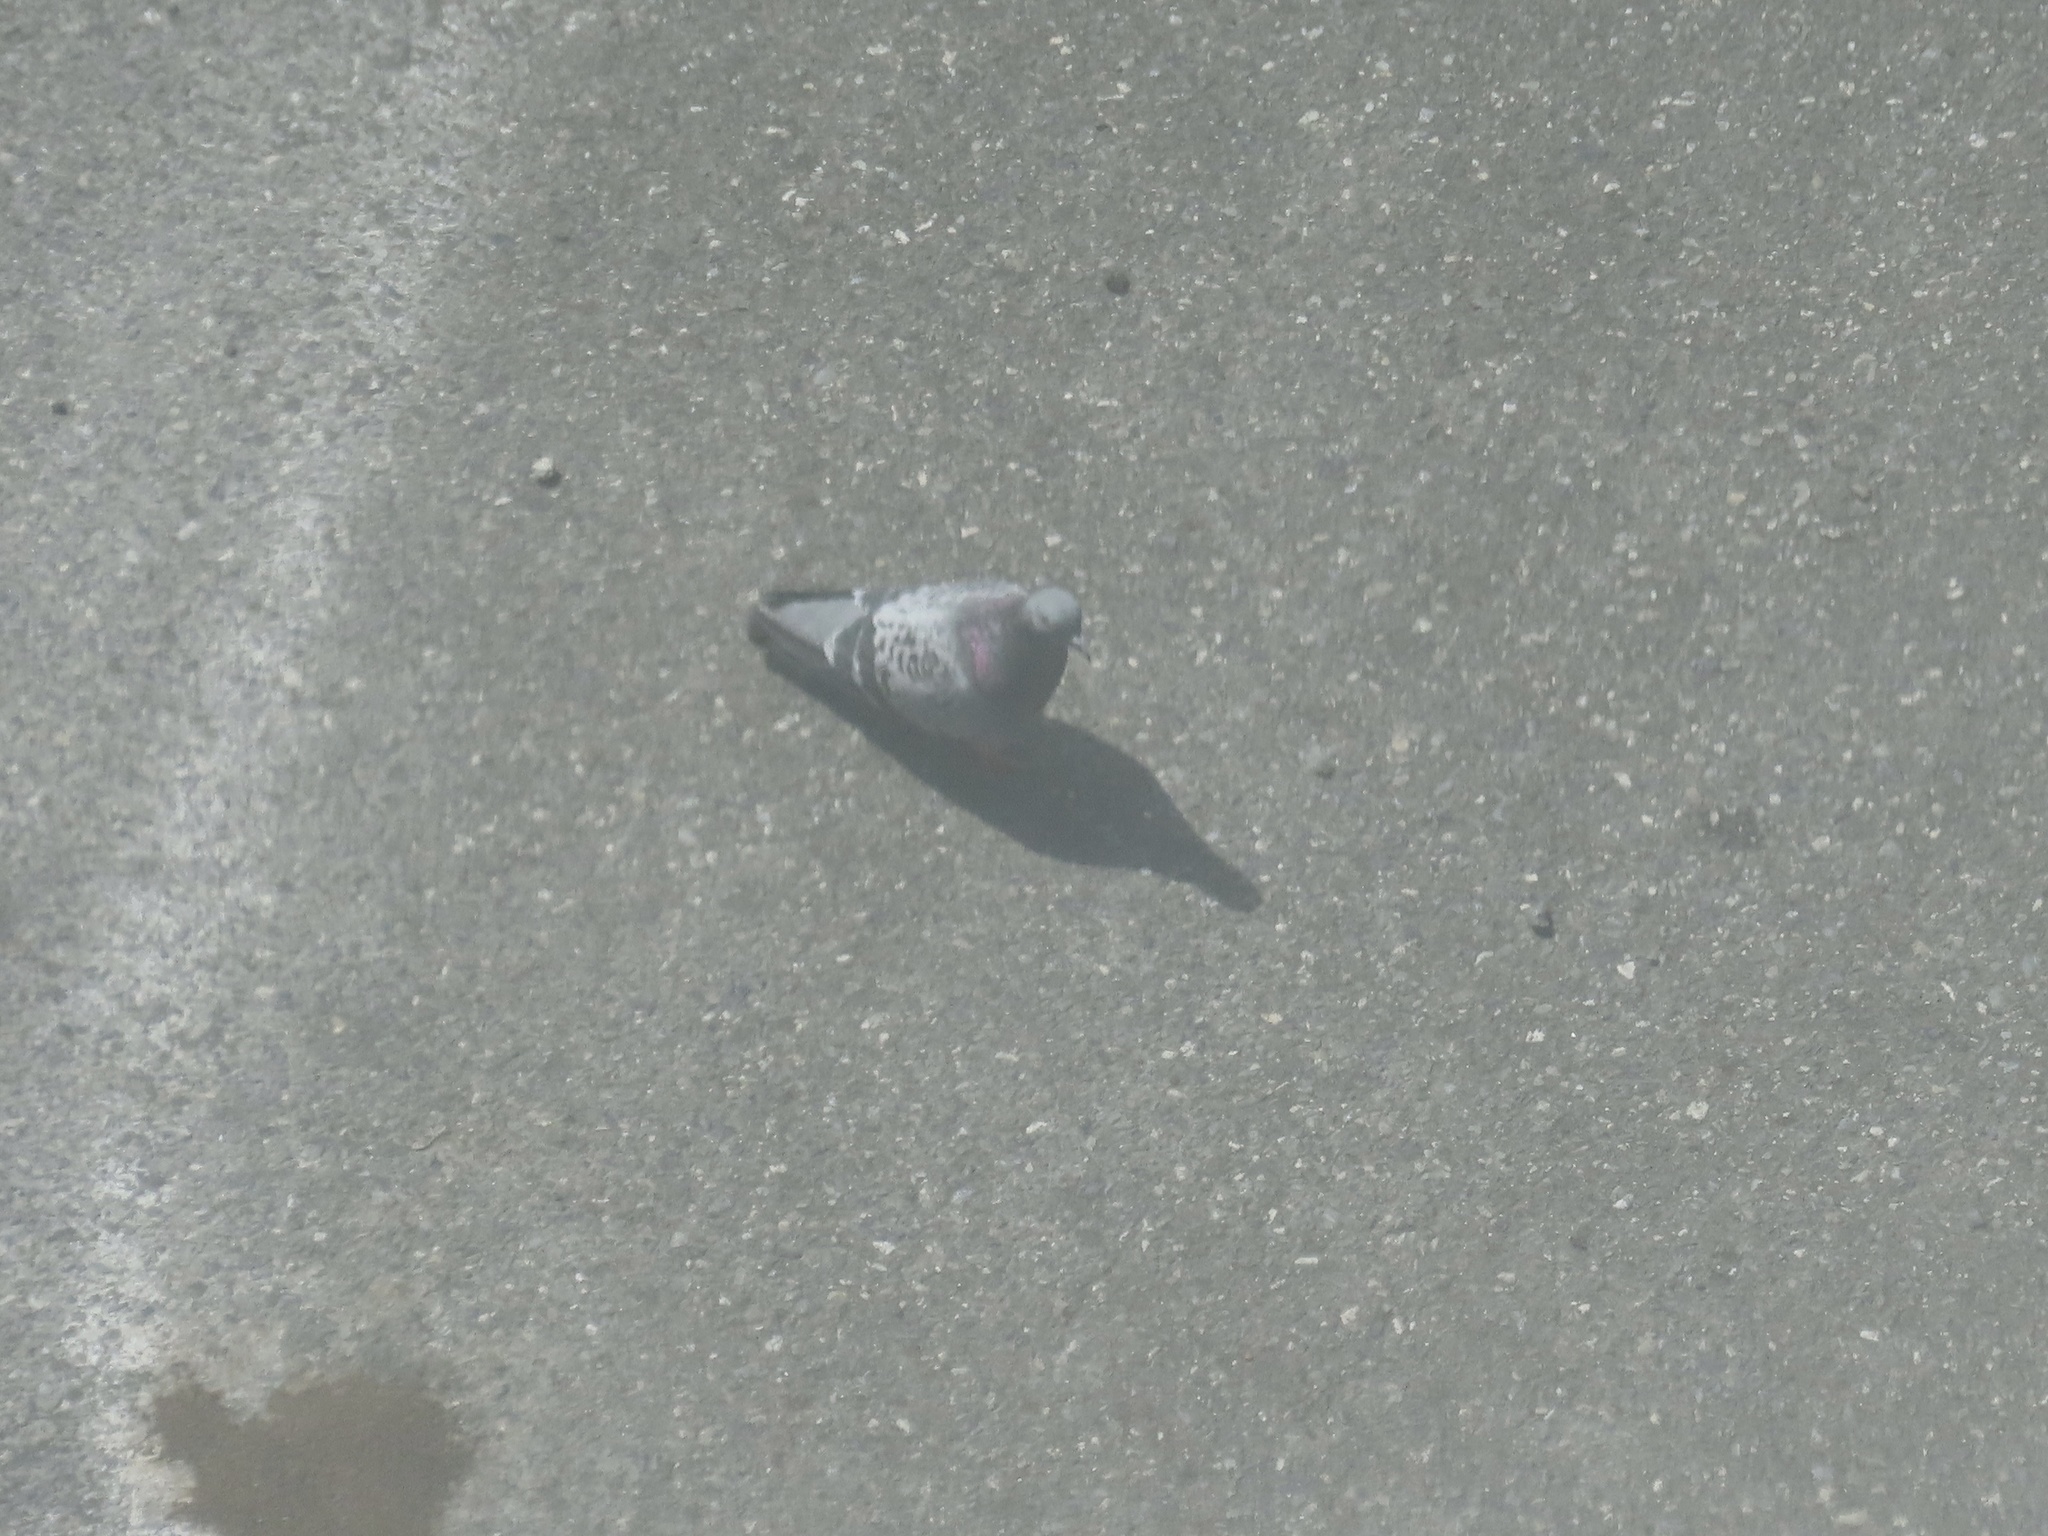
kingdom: Animalia
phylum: Chordata
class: Aves
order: Columbiformes
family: Columbidae
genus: Columba
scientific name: Columba livia
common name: Rock pigeon
